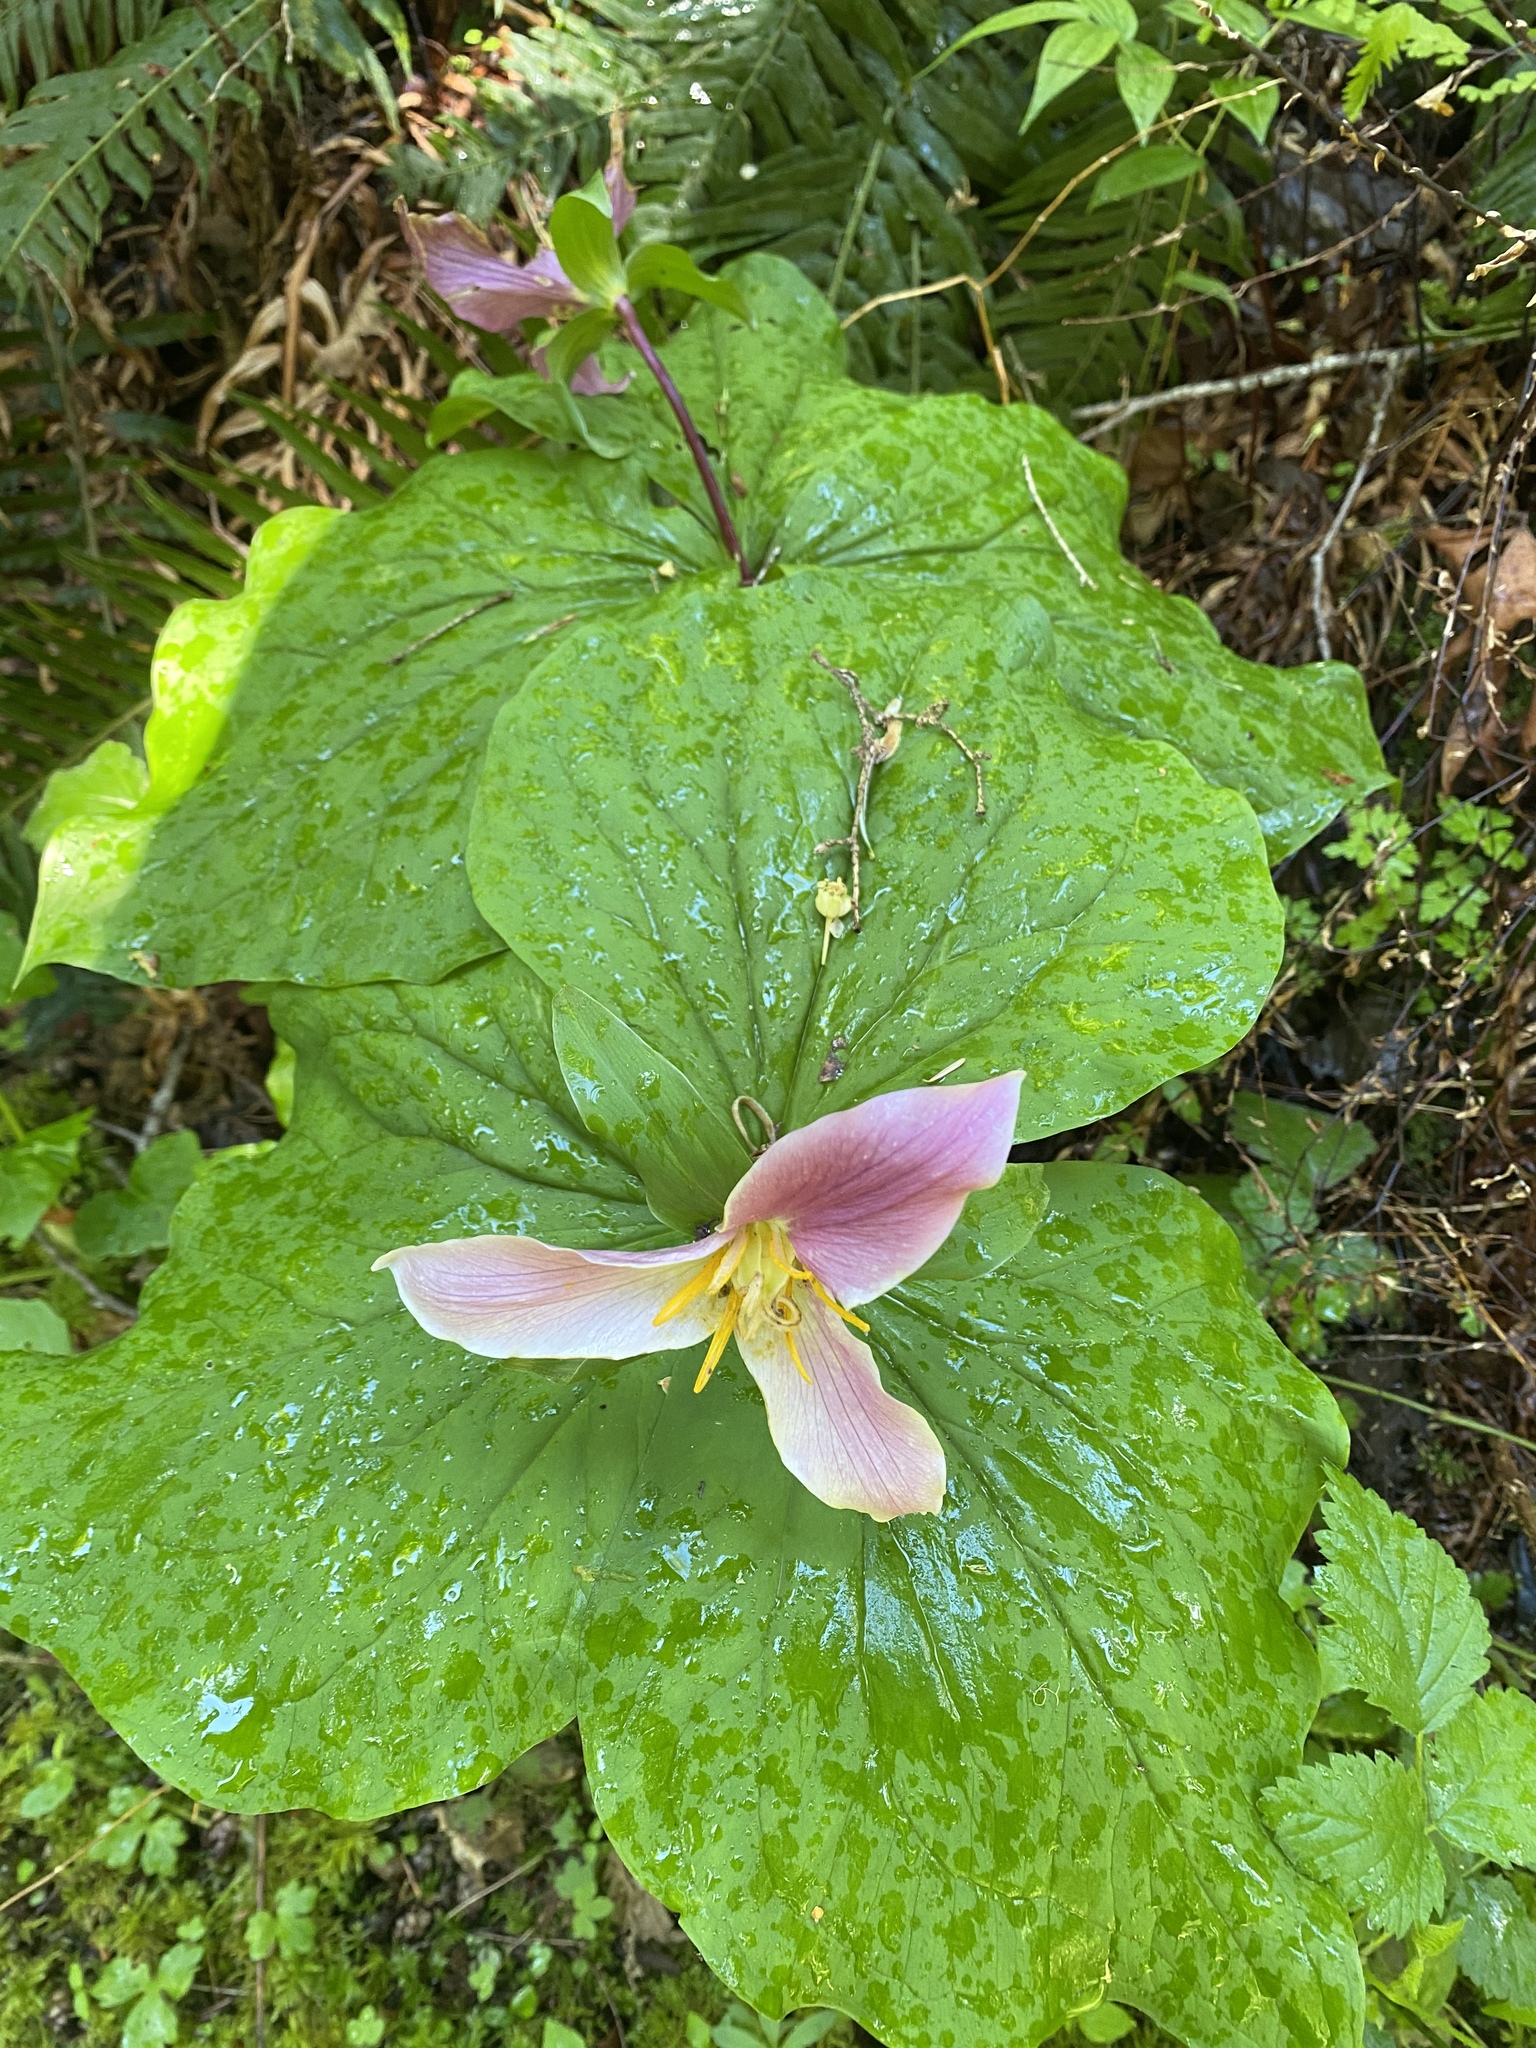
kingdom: Plantae
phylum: Tracheophyta
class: Liliopsida
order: Liliales
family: Melanthiaceae
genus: Trillium
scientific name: Trillium ovatum
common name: Pacific trillium
